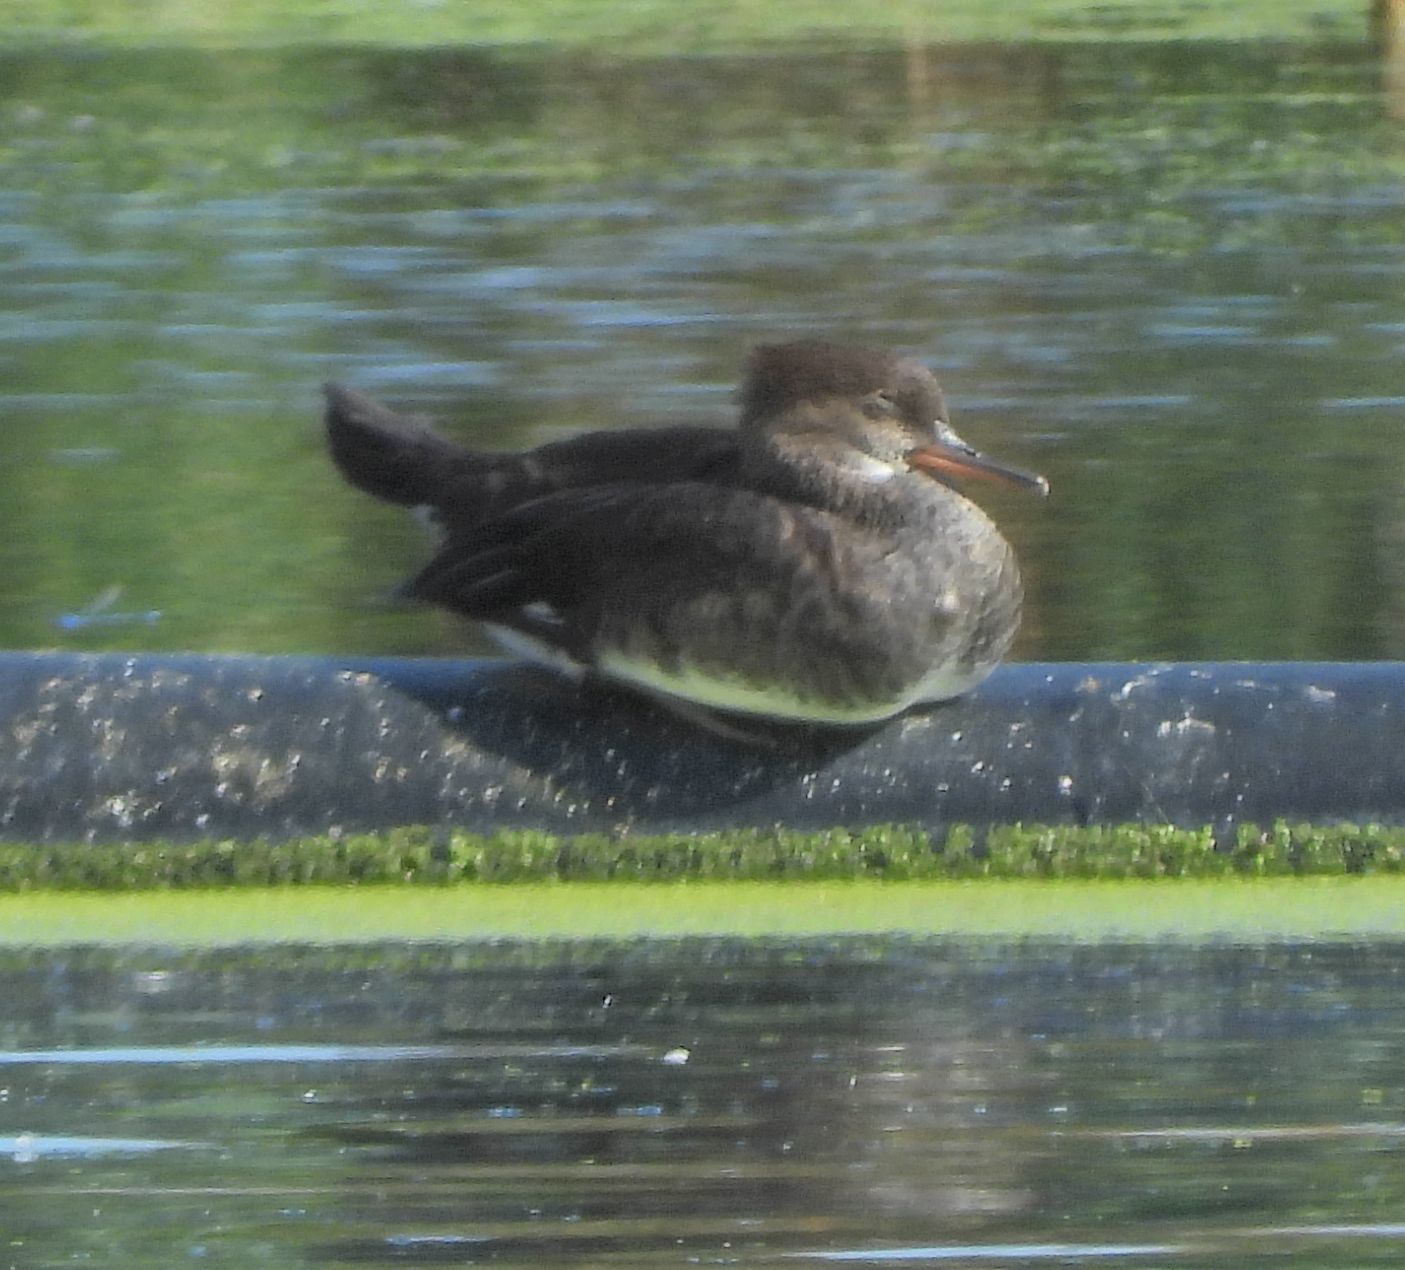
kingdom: Animalia
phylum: Chordata
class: Aves
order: Anseriformes
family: Anatidae
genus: Lophodytes
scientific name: Lophodytes cucullatus
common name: Hooded merganser
